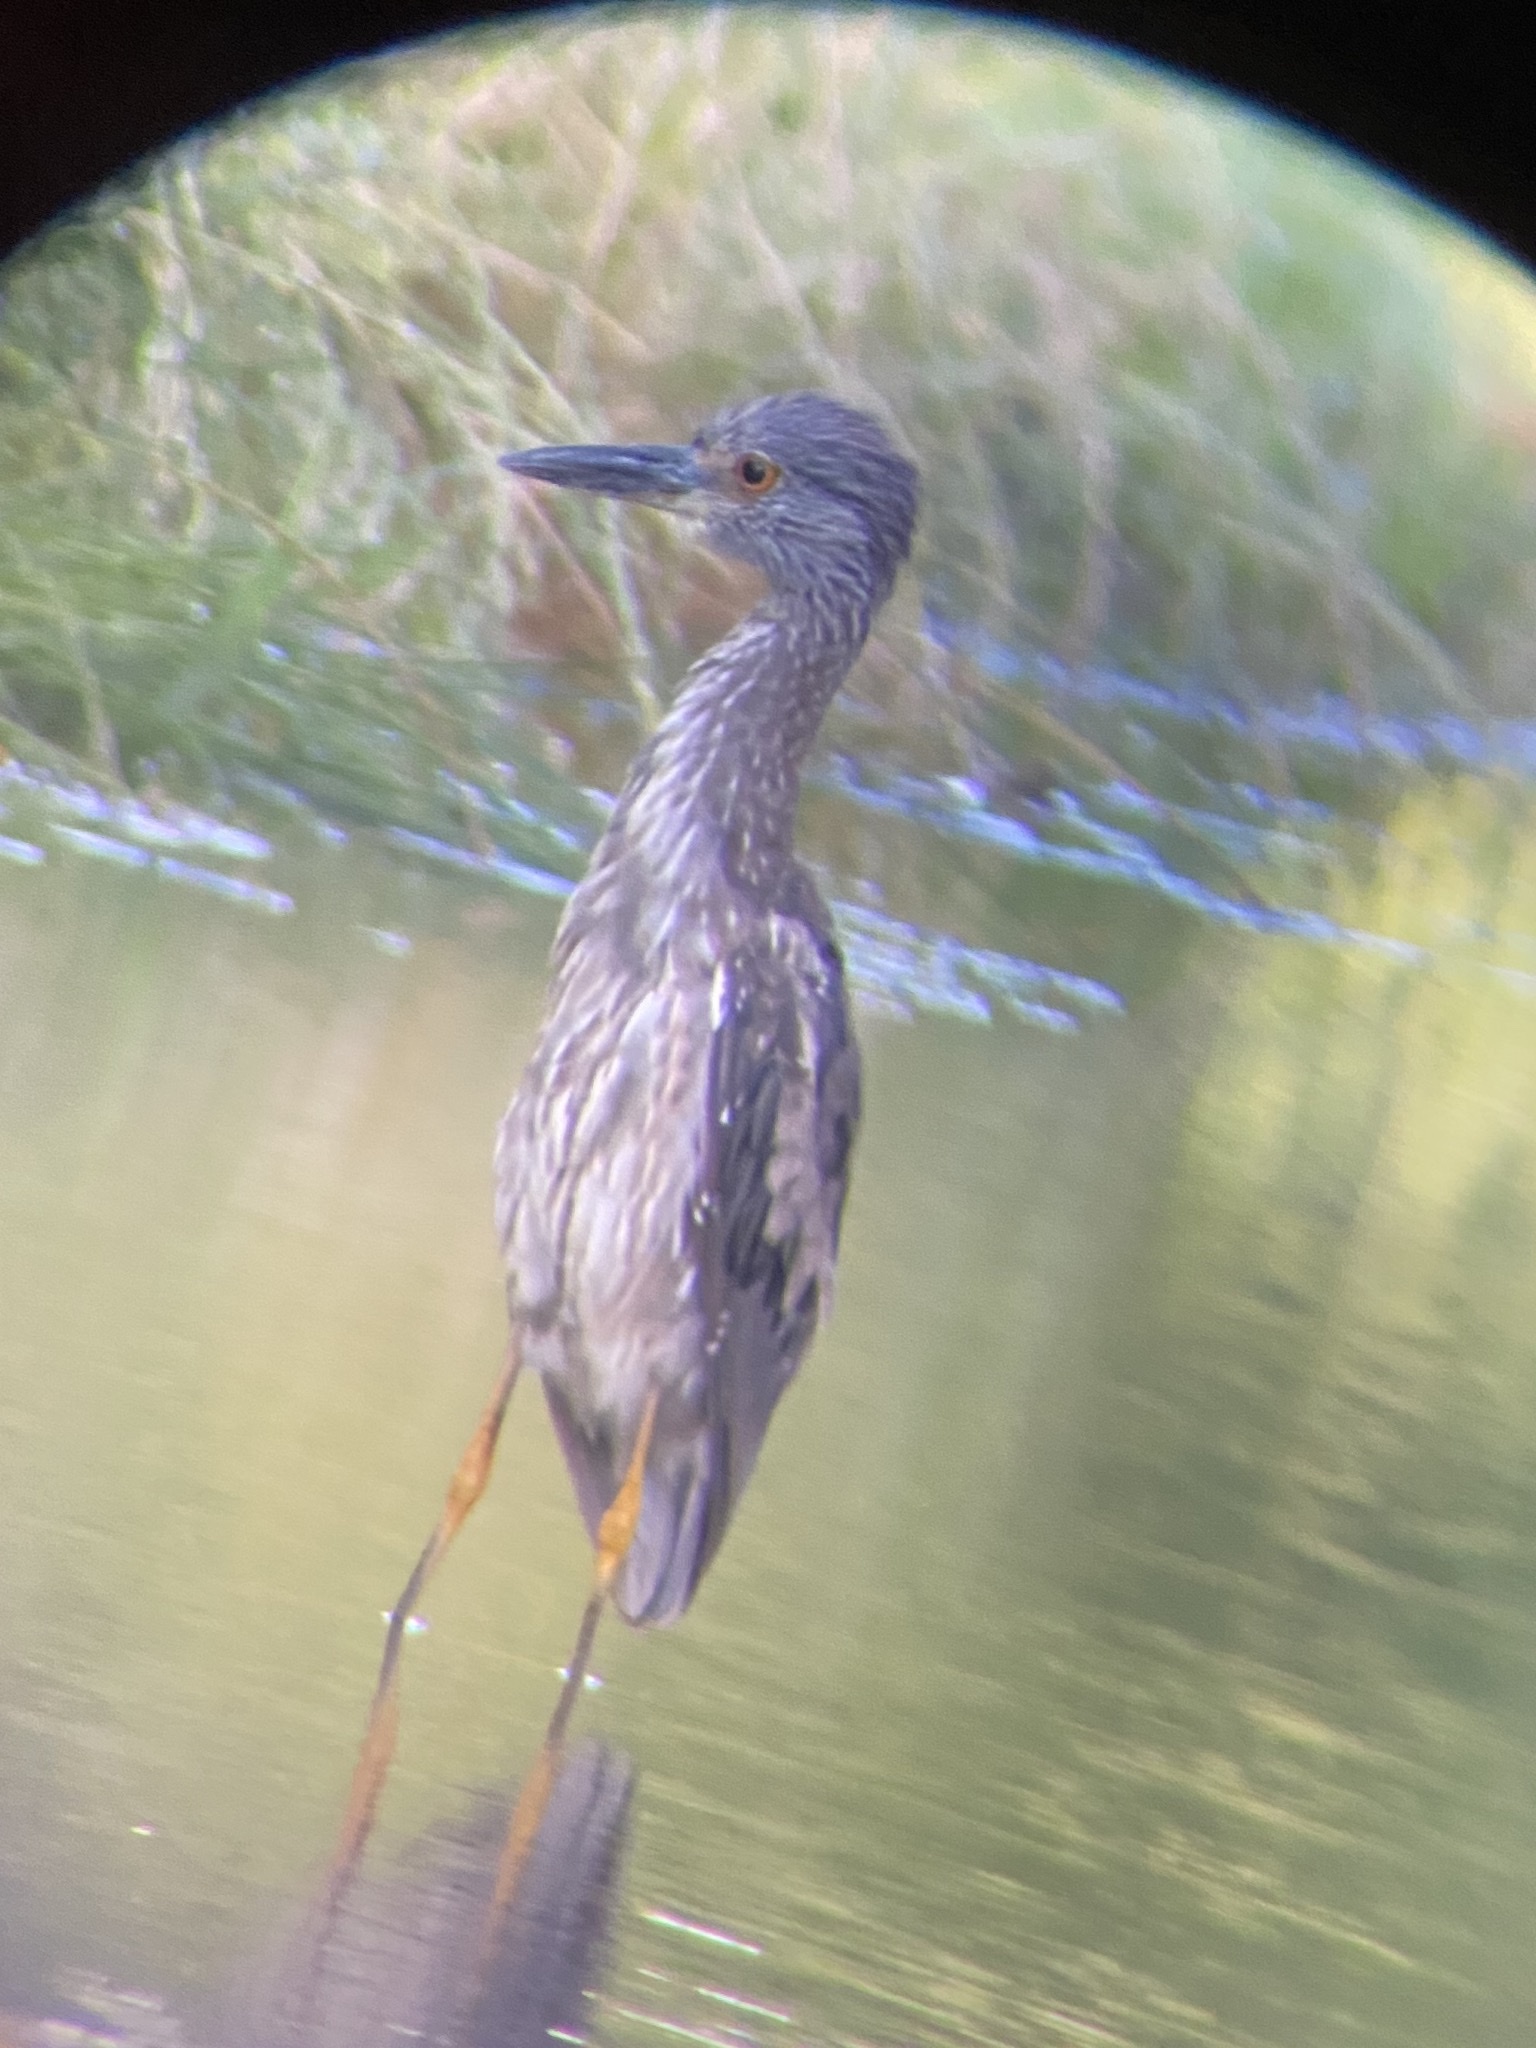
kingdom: Animalia
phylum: Chordata
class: Aves
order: Pelecaniformes
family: Ardeidae
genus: Nyctanassa
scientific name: Nyctanassa violacea
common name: Yellow-crowned night heron
